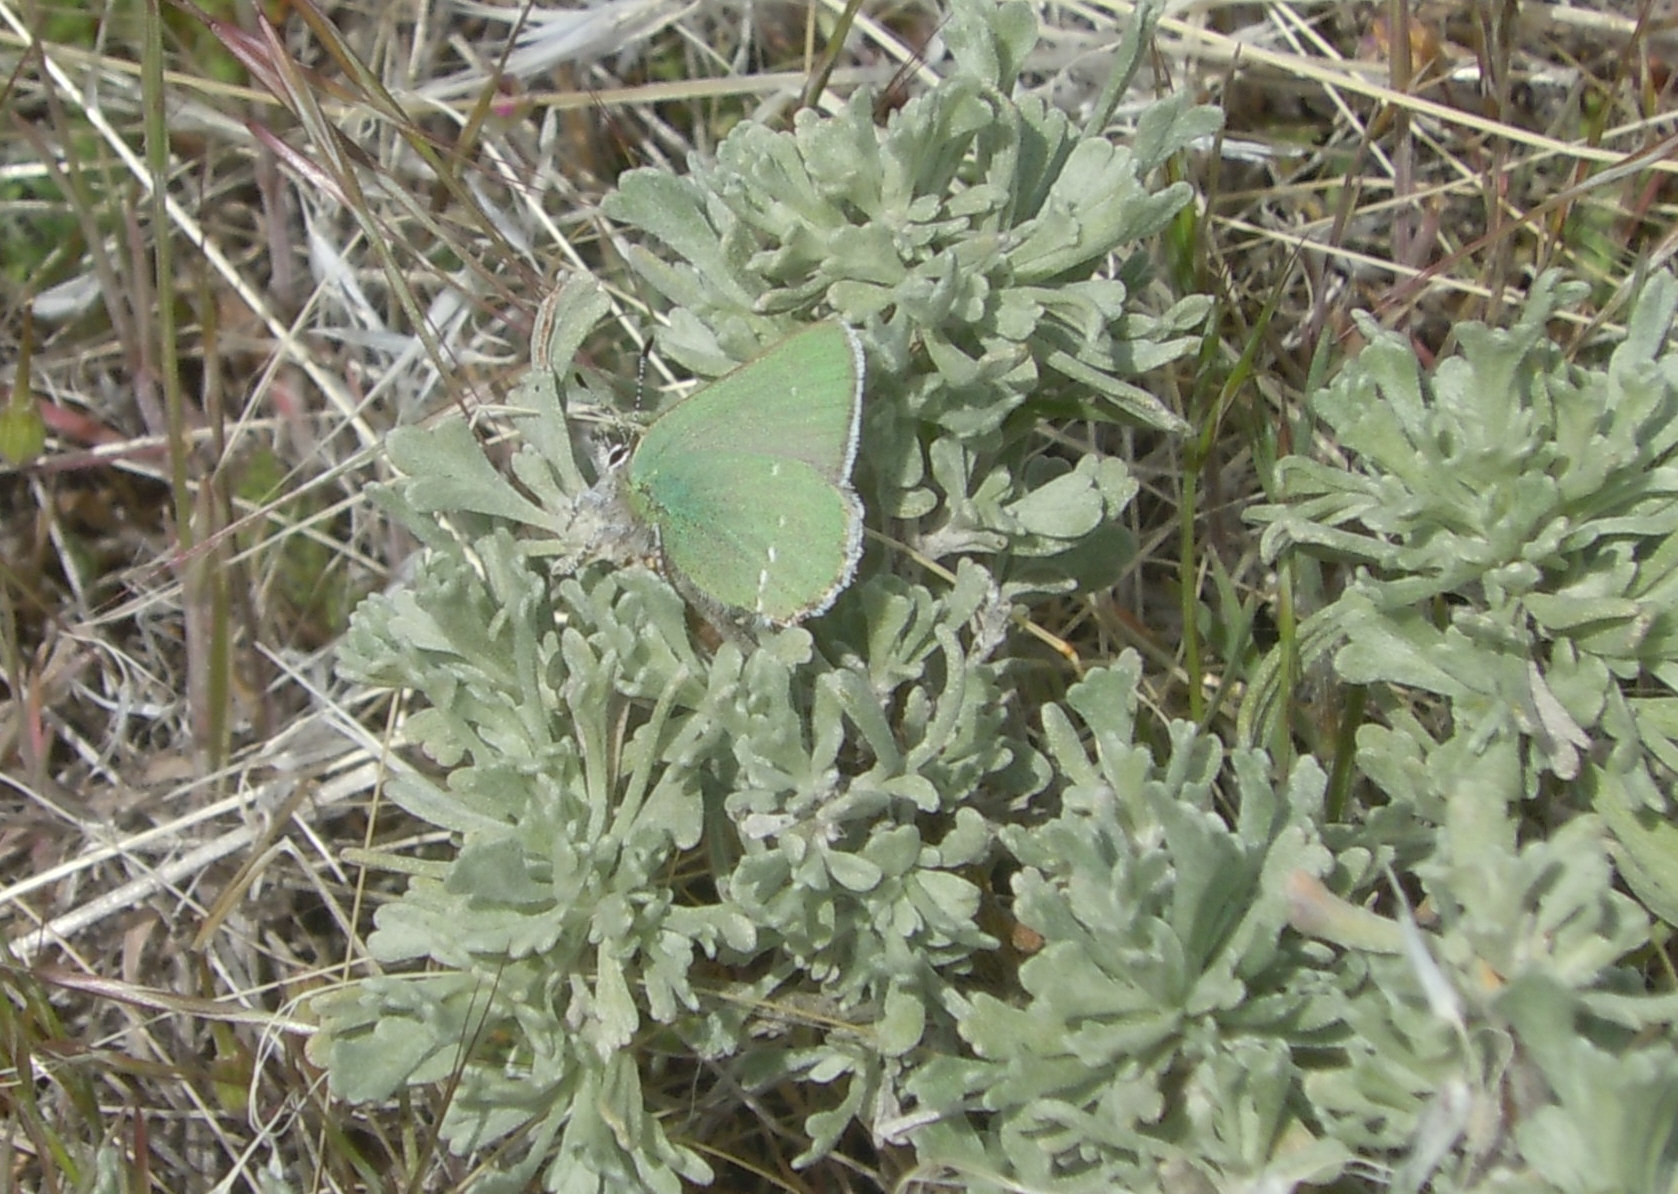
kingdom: Animalia
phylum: Arthropoda
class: Insecta
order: Lepidoptera
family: Lycaenidae
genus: Thecla
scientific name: Thecla sheridanii
